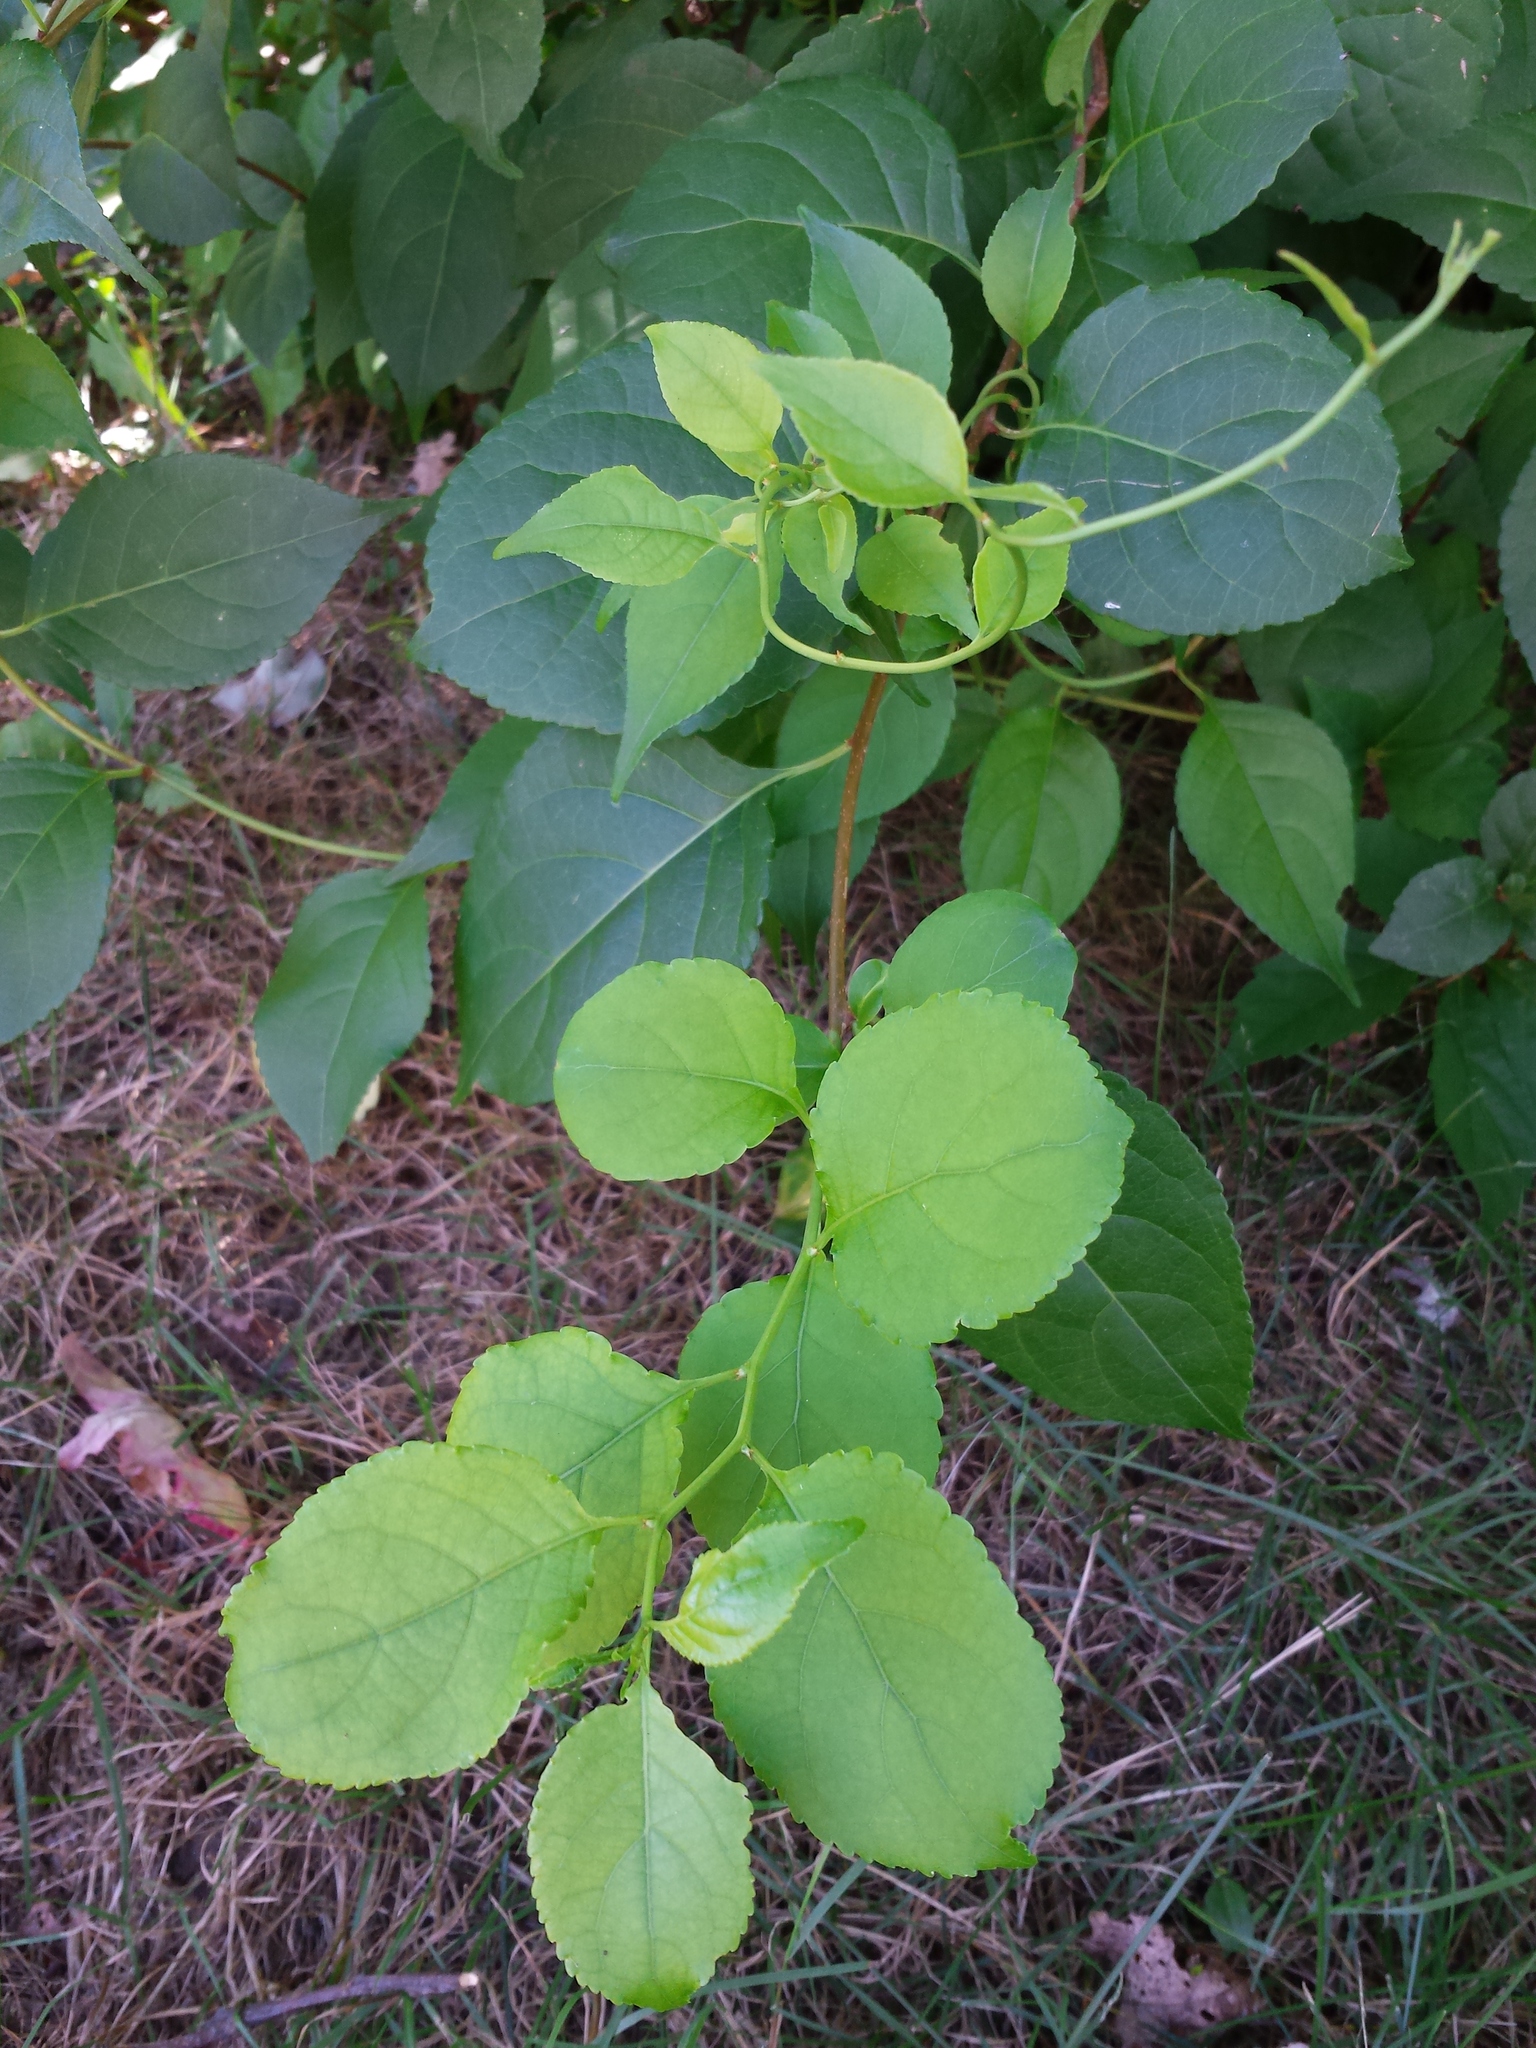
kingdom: Plantae
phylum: Tracheophyta
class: Magnoliopsida
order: Celastrales
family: Celastraceae
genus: Celastrus
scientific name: Celastrus orbiculatus
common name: Oriental bittersweet
